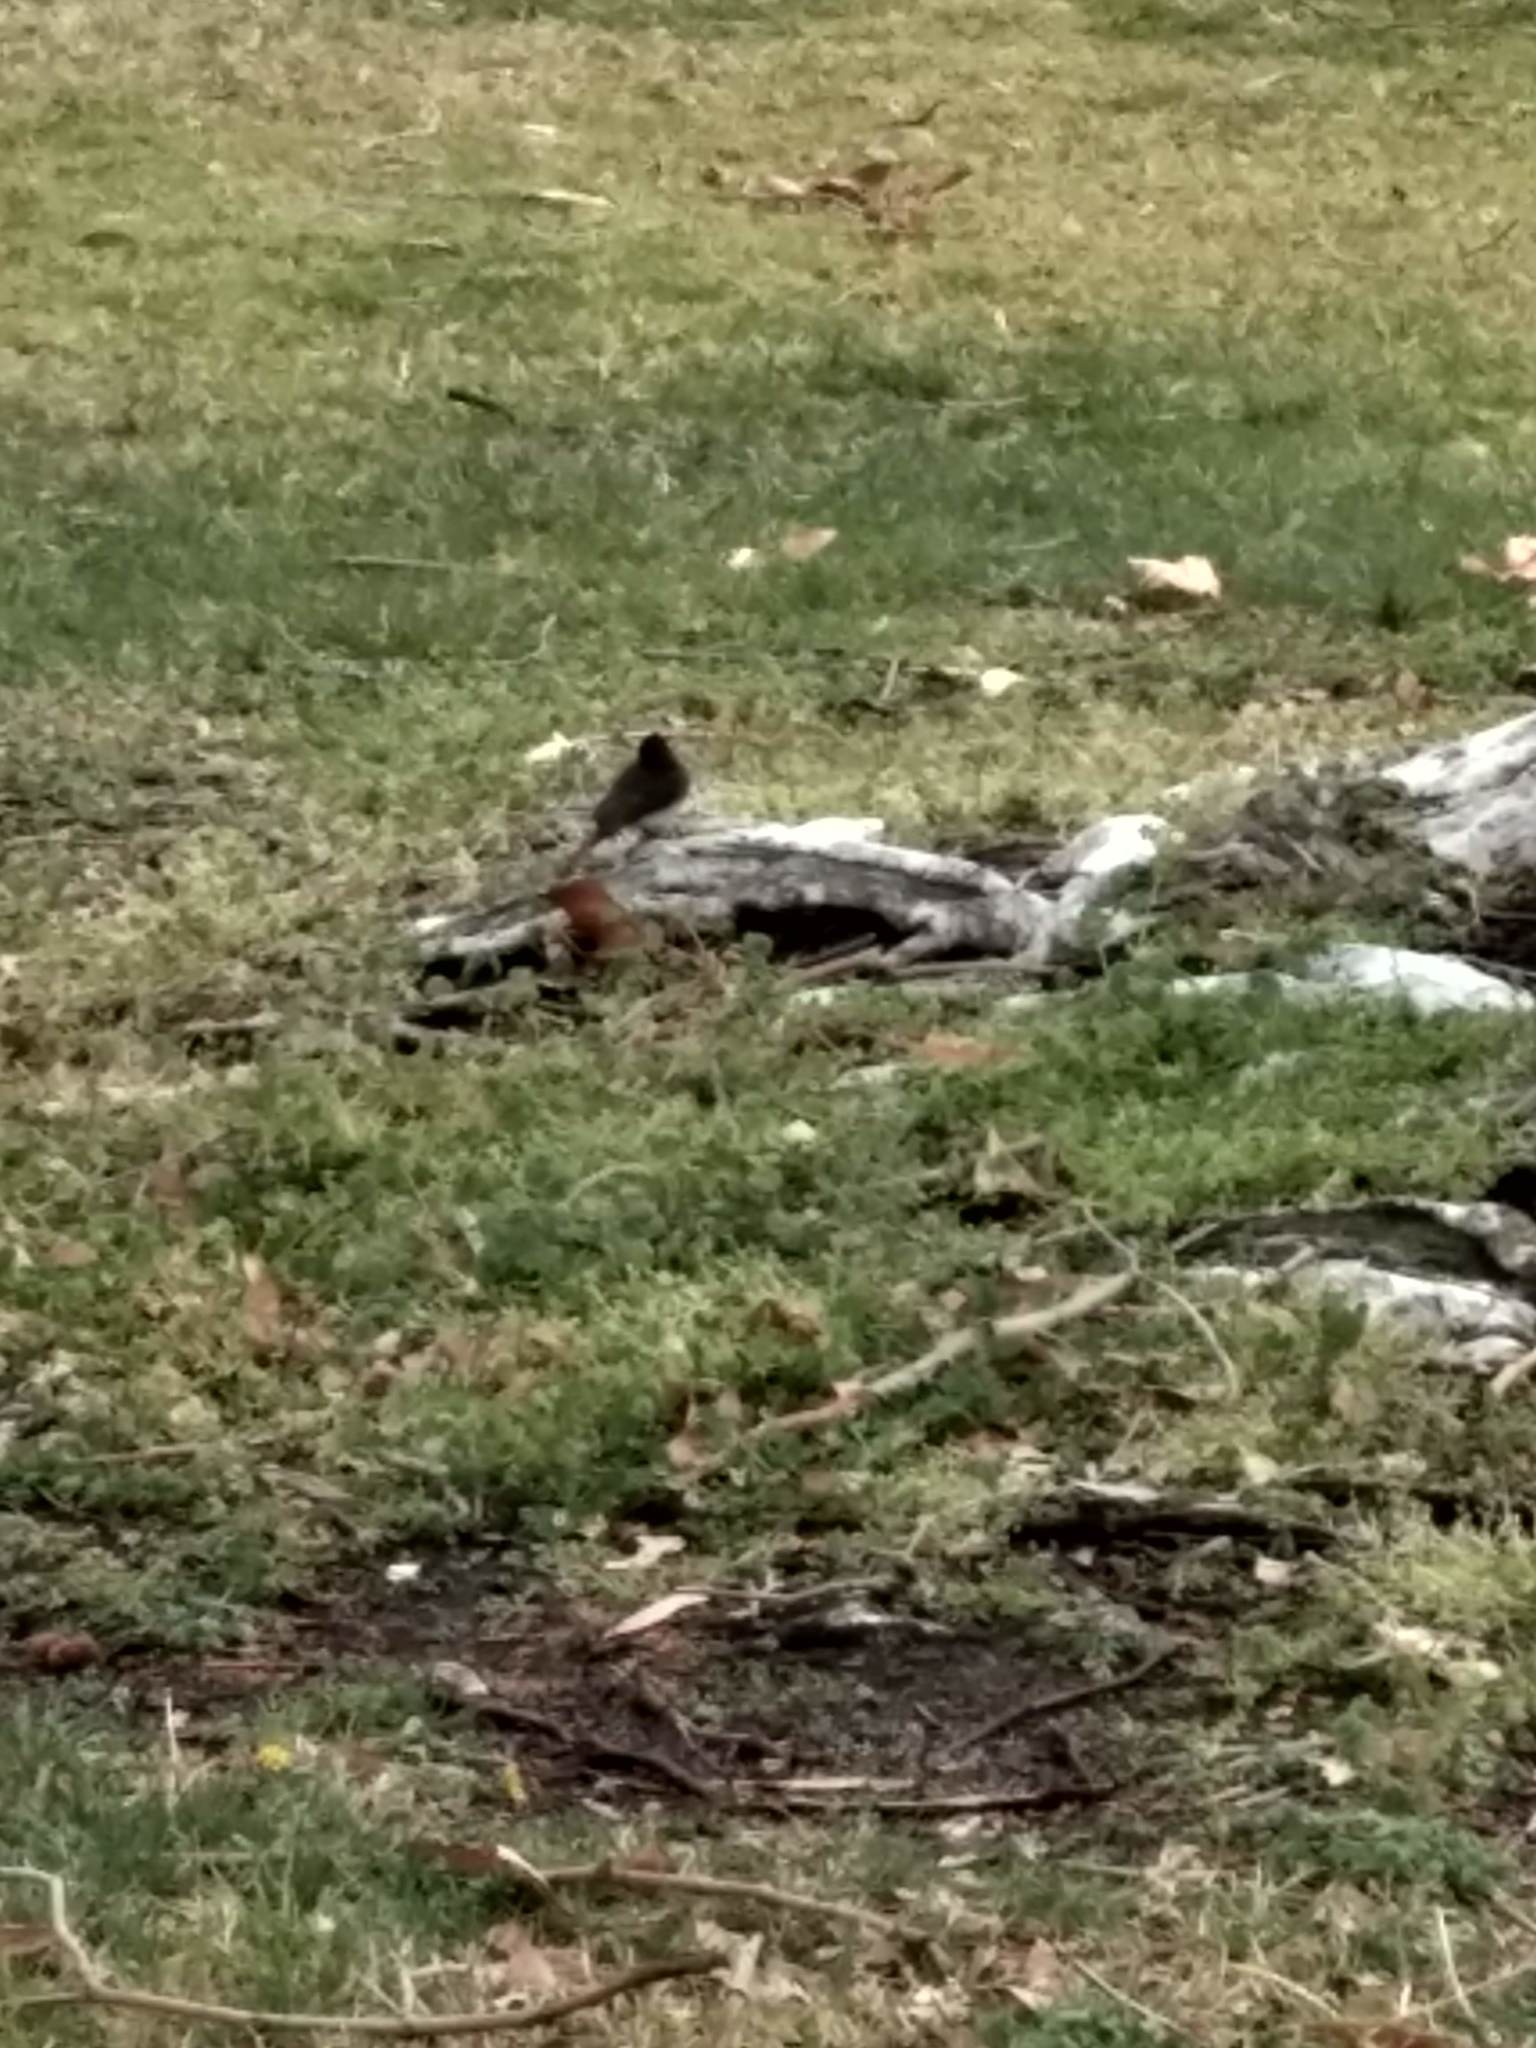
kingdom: Animalia
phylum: Chordata
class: Aves
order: Passeriformes
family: Tyrannidae
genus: Sayornis
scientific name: Sayornis nigricans
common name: Black phoebe
